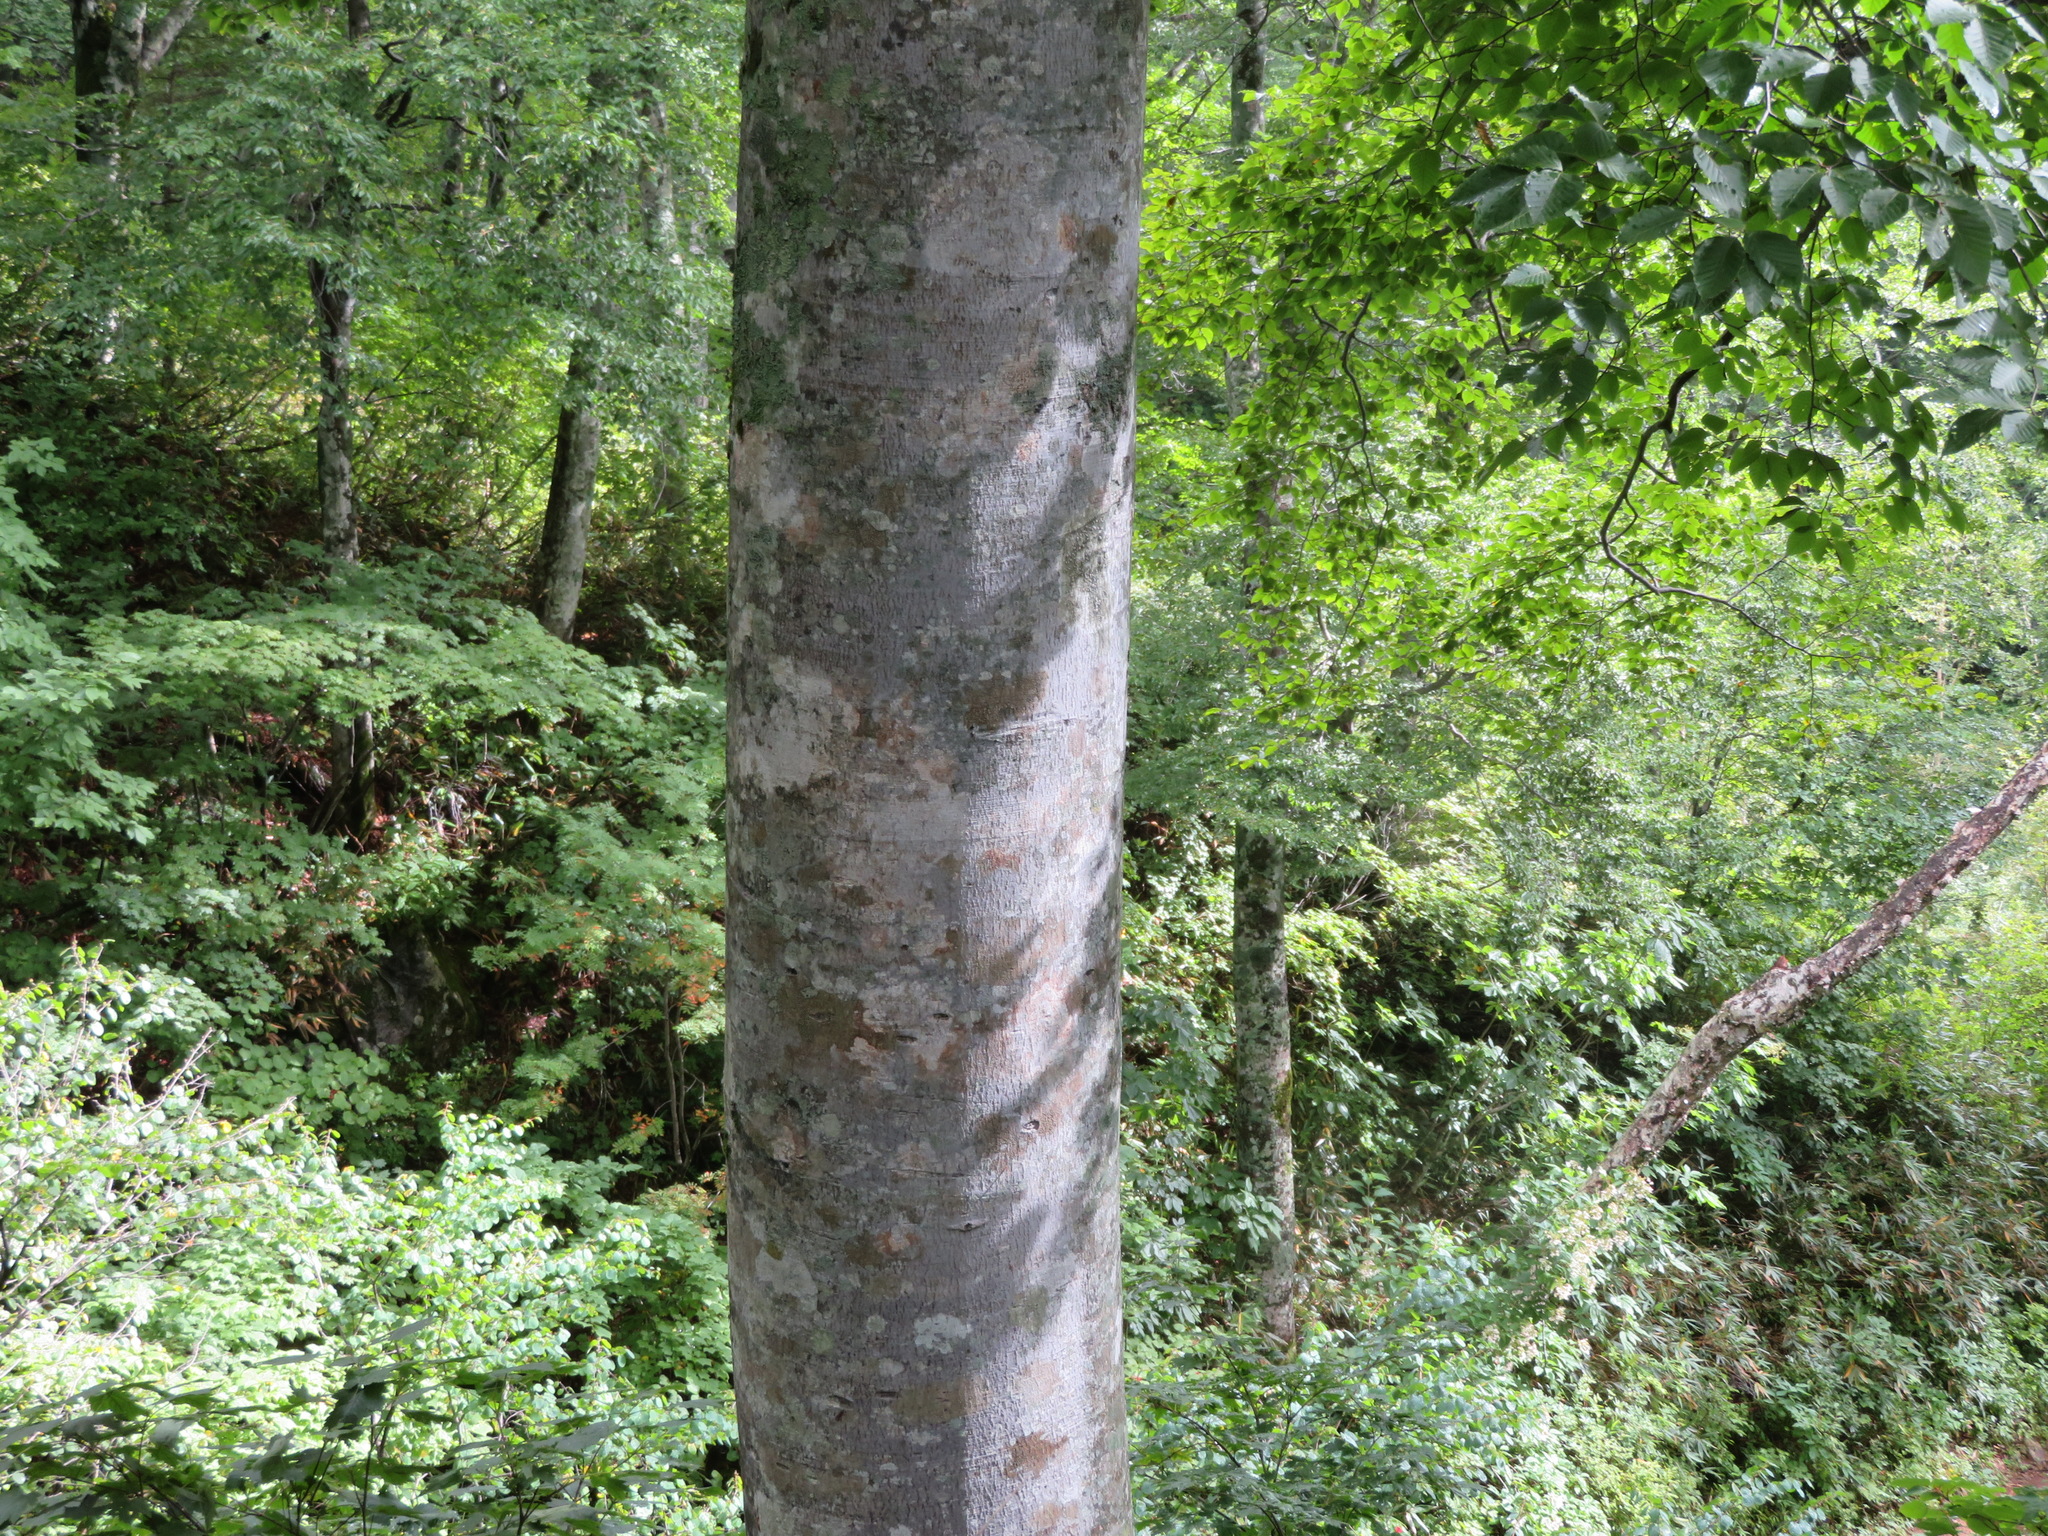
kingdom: Plantae
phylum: Tracheophyta
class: Magnoliopsida
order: Fagales
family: Fagaceae
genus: Fagus
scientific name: Fagus crenata
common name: Japanese beech
